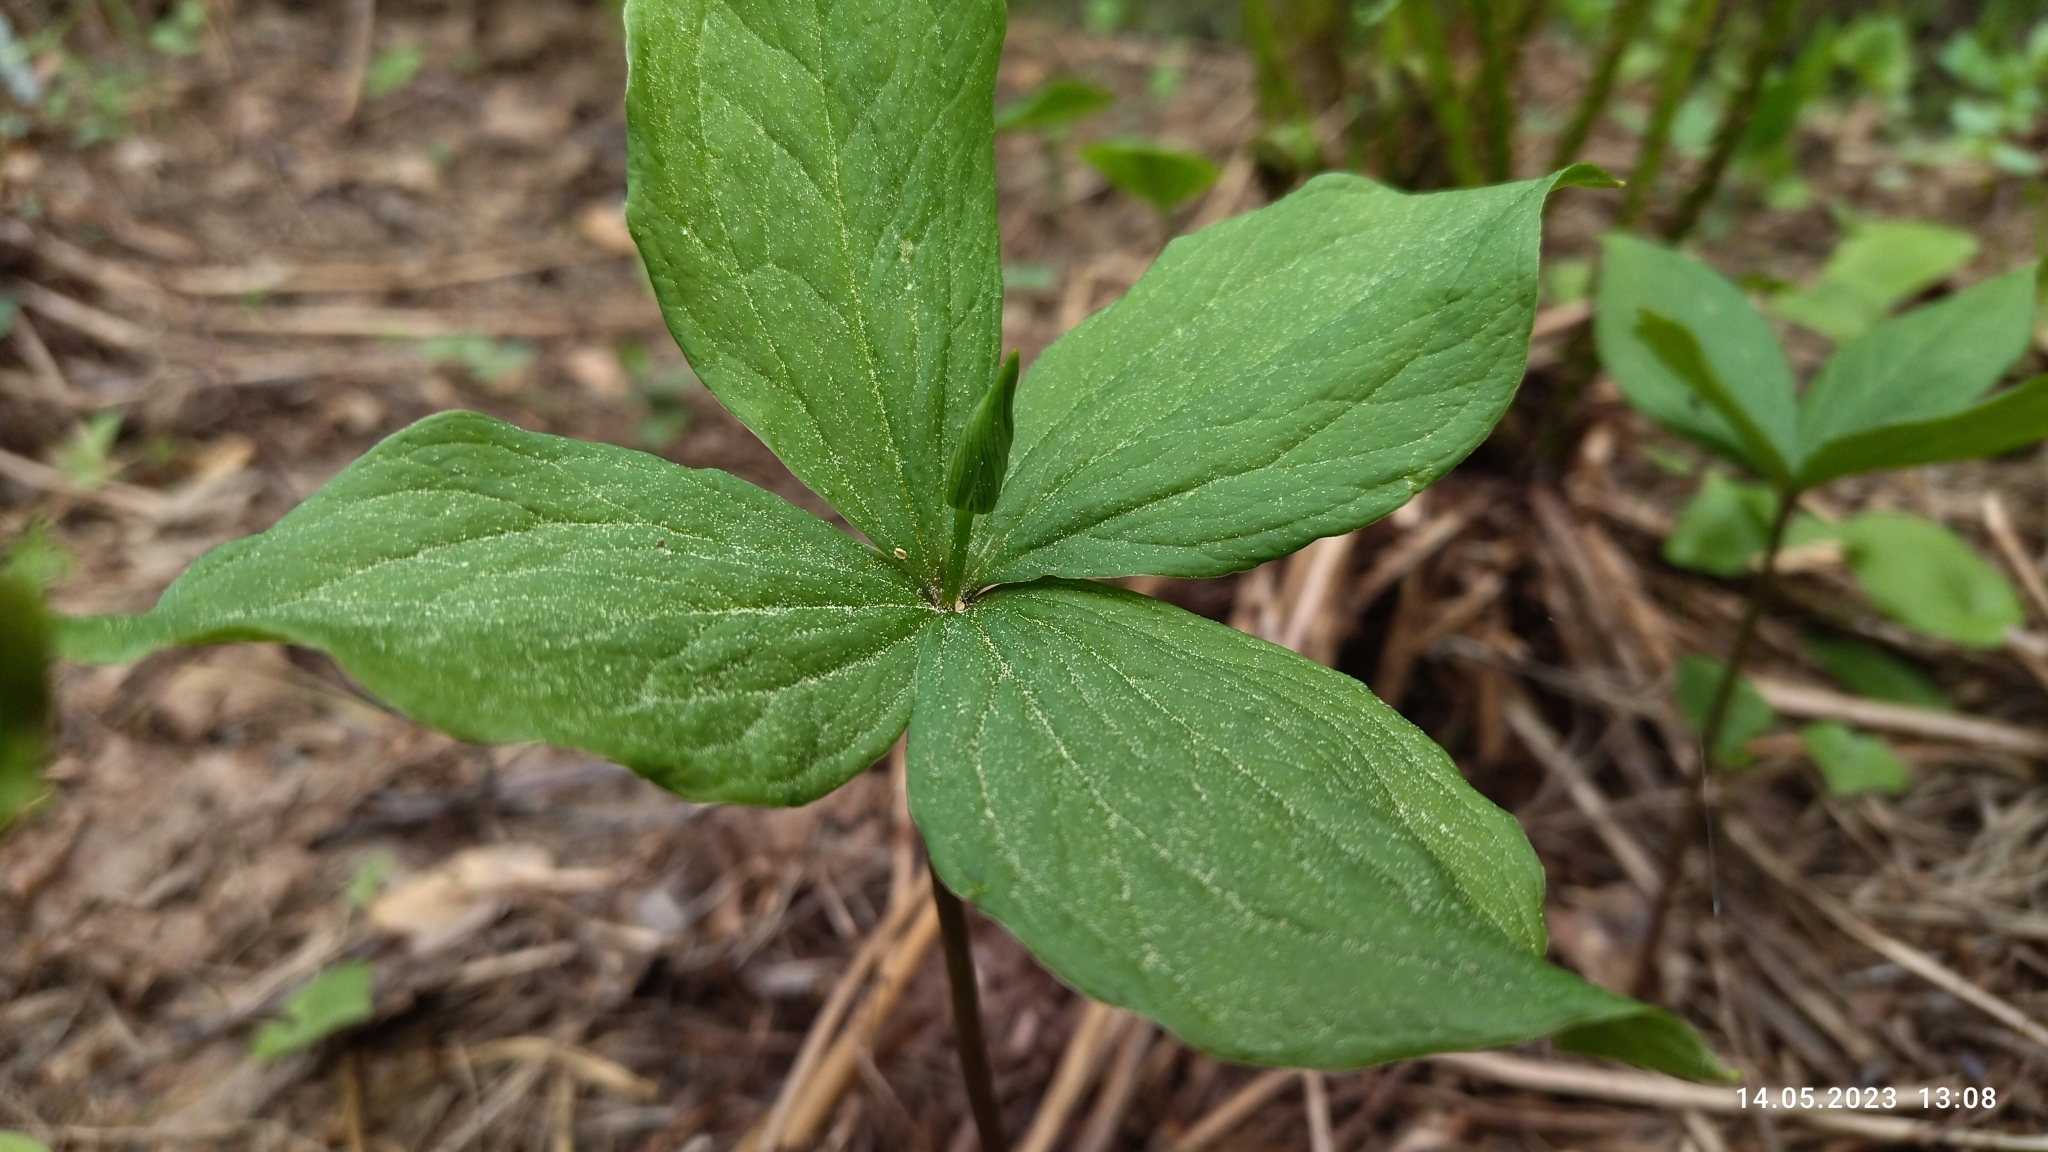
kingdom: Plantae
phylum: Tracheophyta
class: Liliopsida
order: Liliales
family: Melanthiaceae
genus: Paris
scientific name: Paris quadrifolia
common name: Herb-paris
